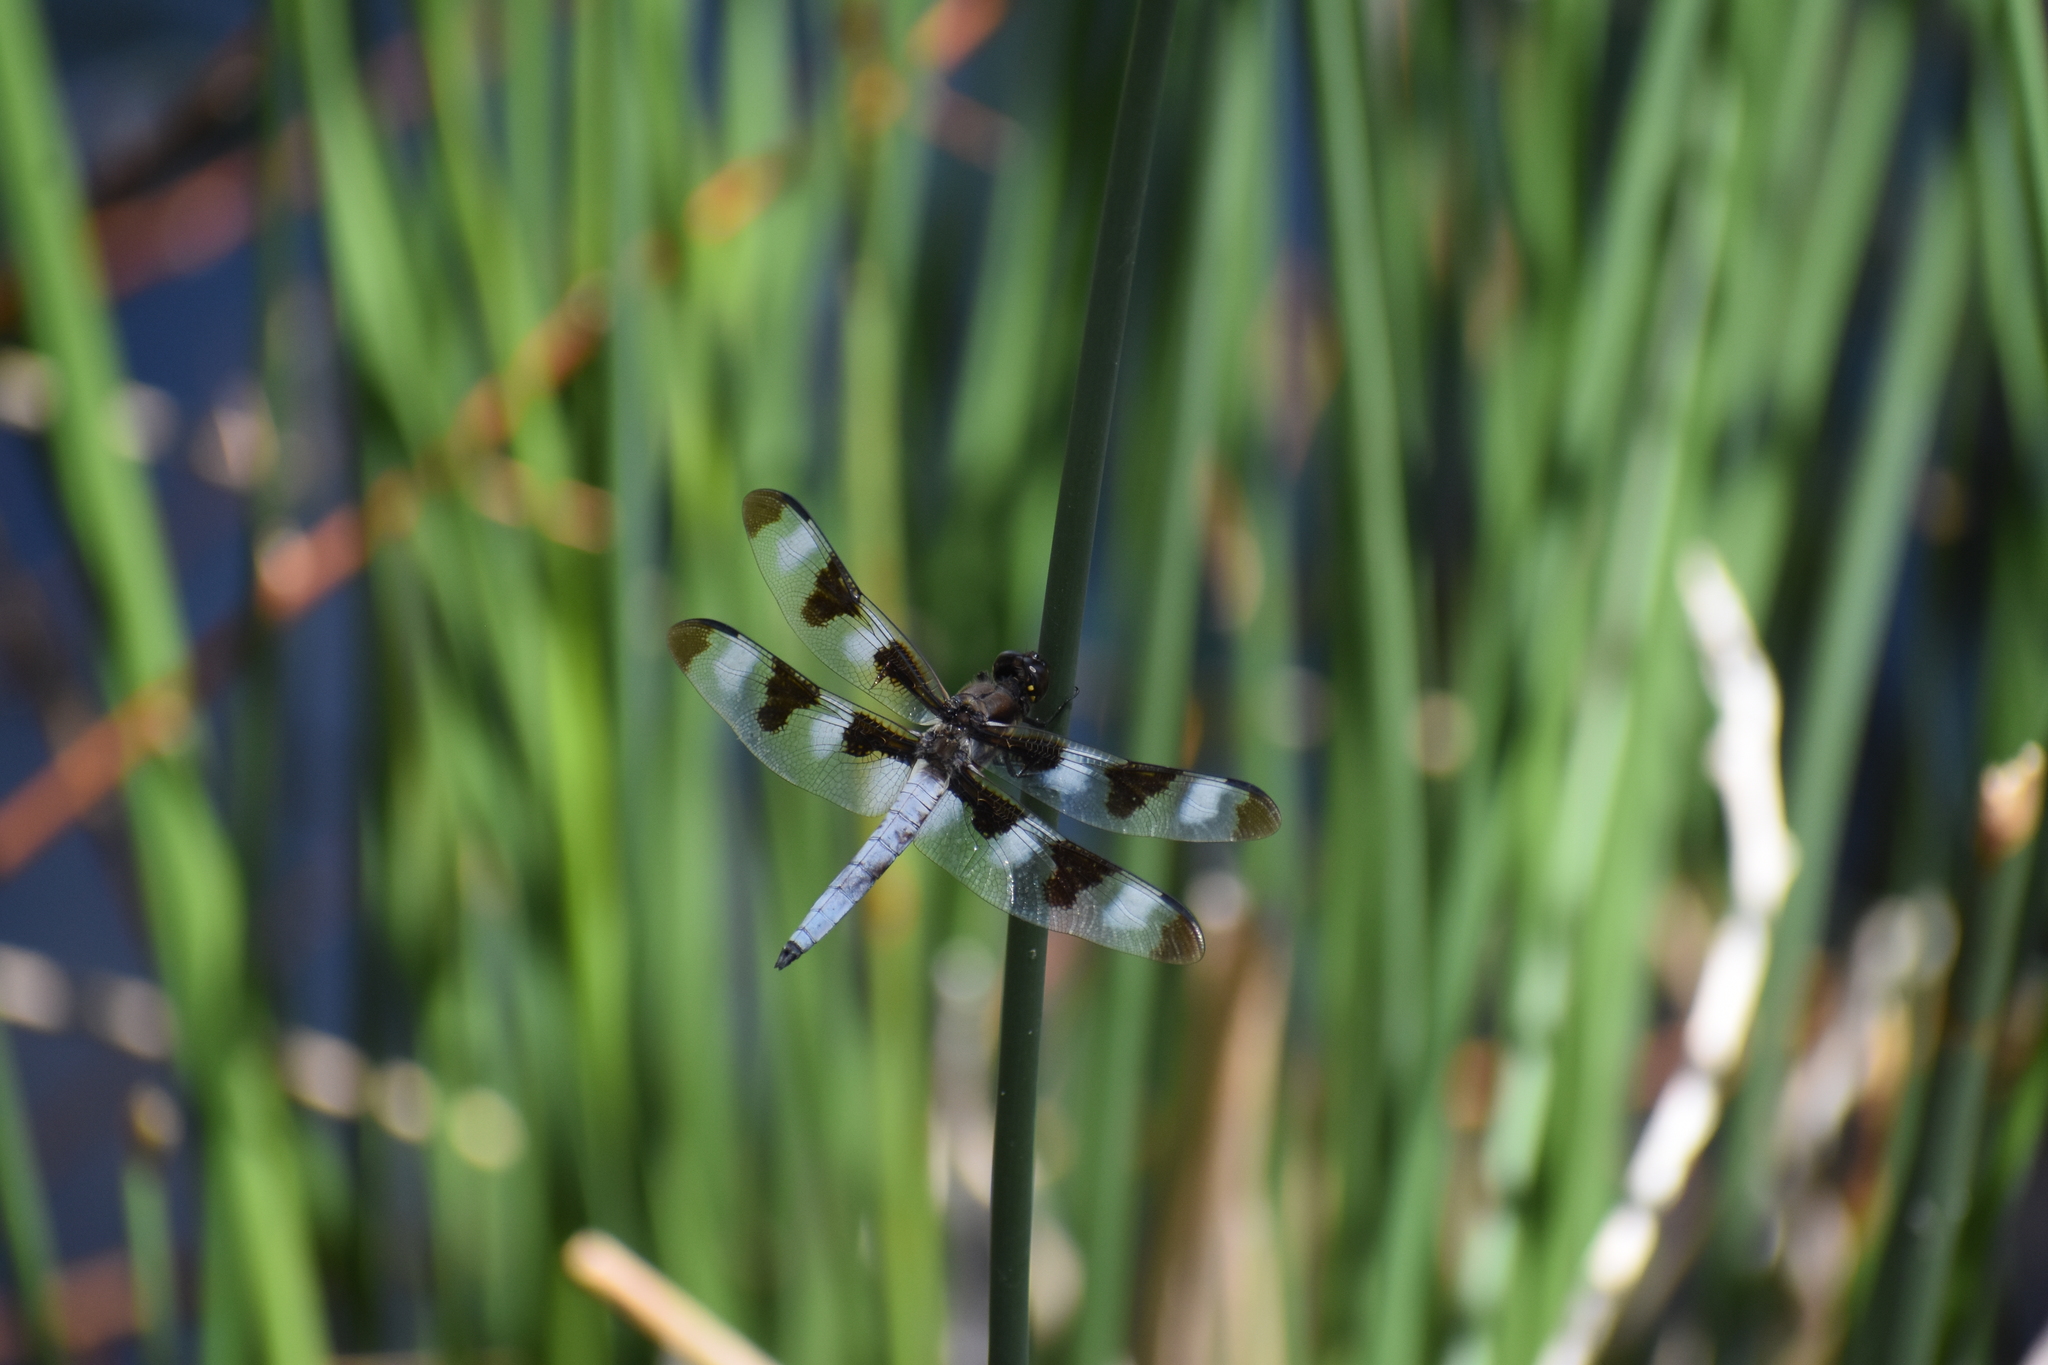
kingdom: Animalia
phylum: Arthropoda
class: Insecta
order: Odonata
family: Libellulidae
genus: Libellula
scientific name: Libellula pulchella
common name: Twelve-spotted skimmer
